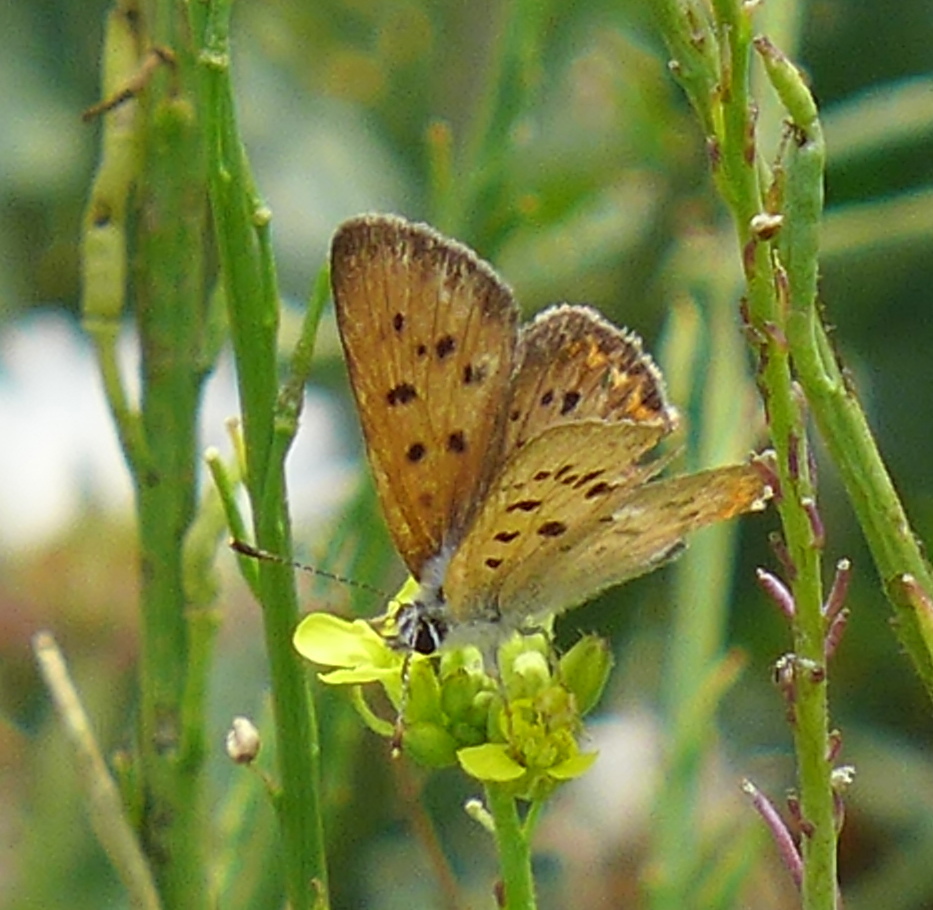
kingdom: Animalia
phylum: Arthropoda
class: Insecta
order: Lepidoptera
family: Lycaenidae
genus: Tharsalea
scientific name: Tharsalea helloides
